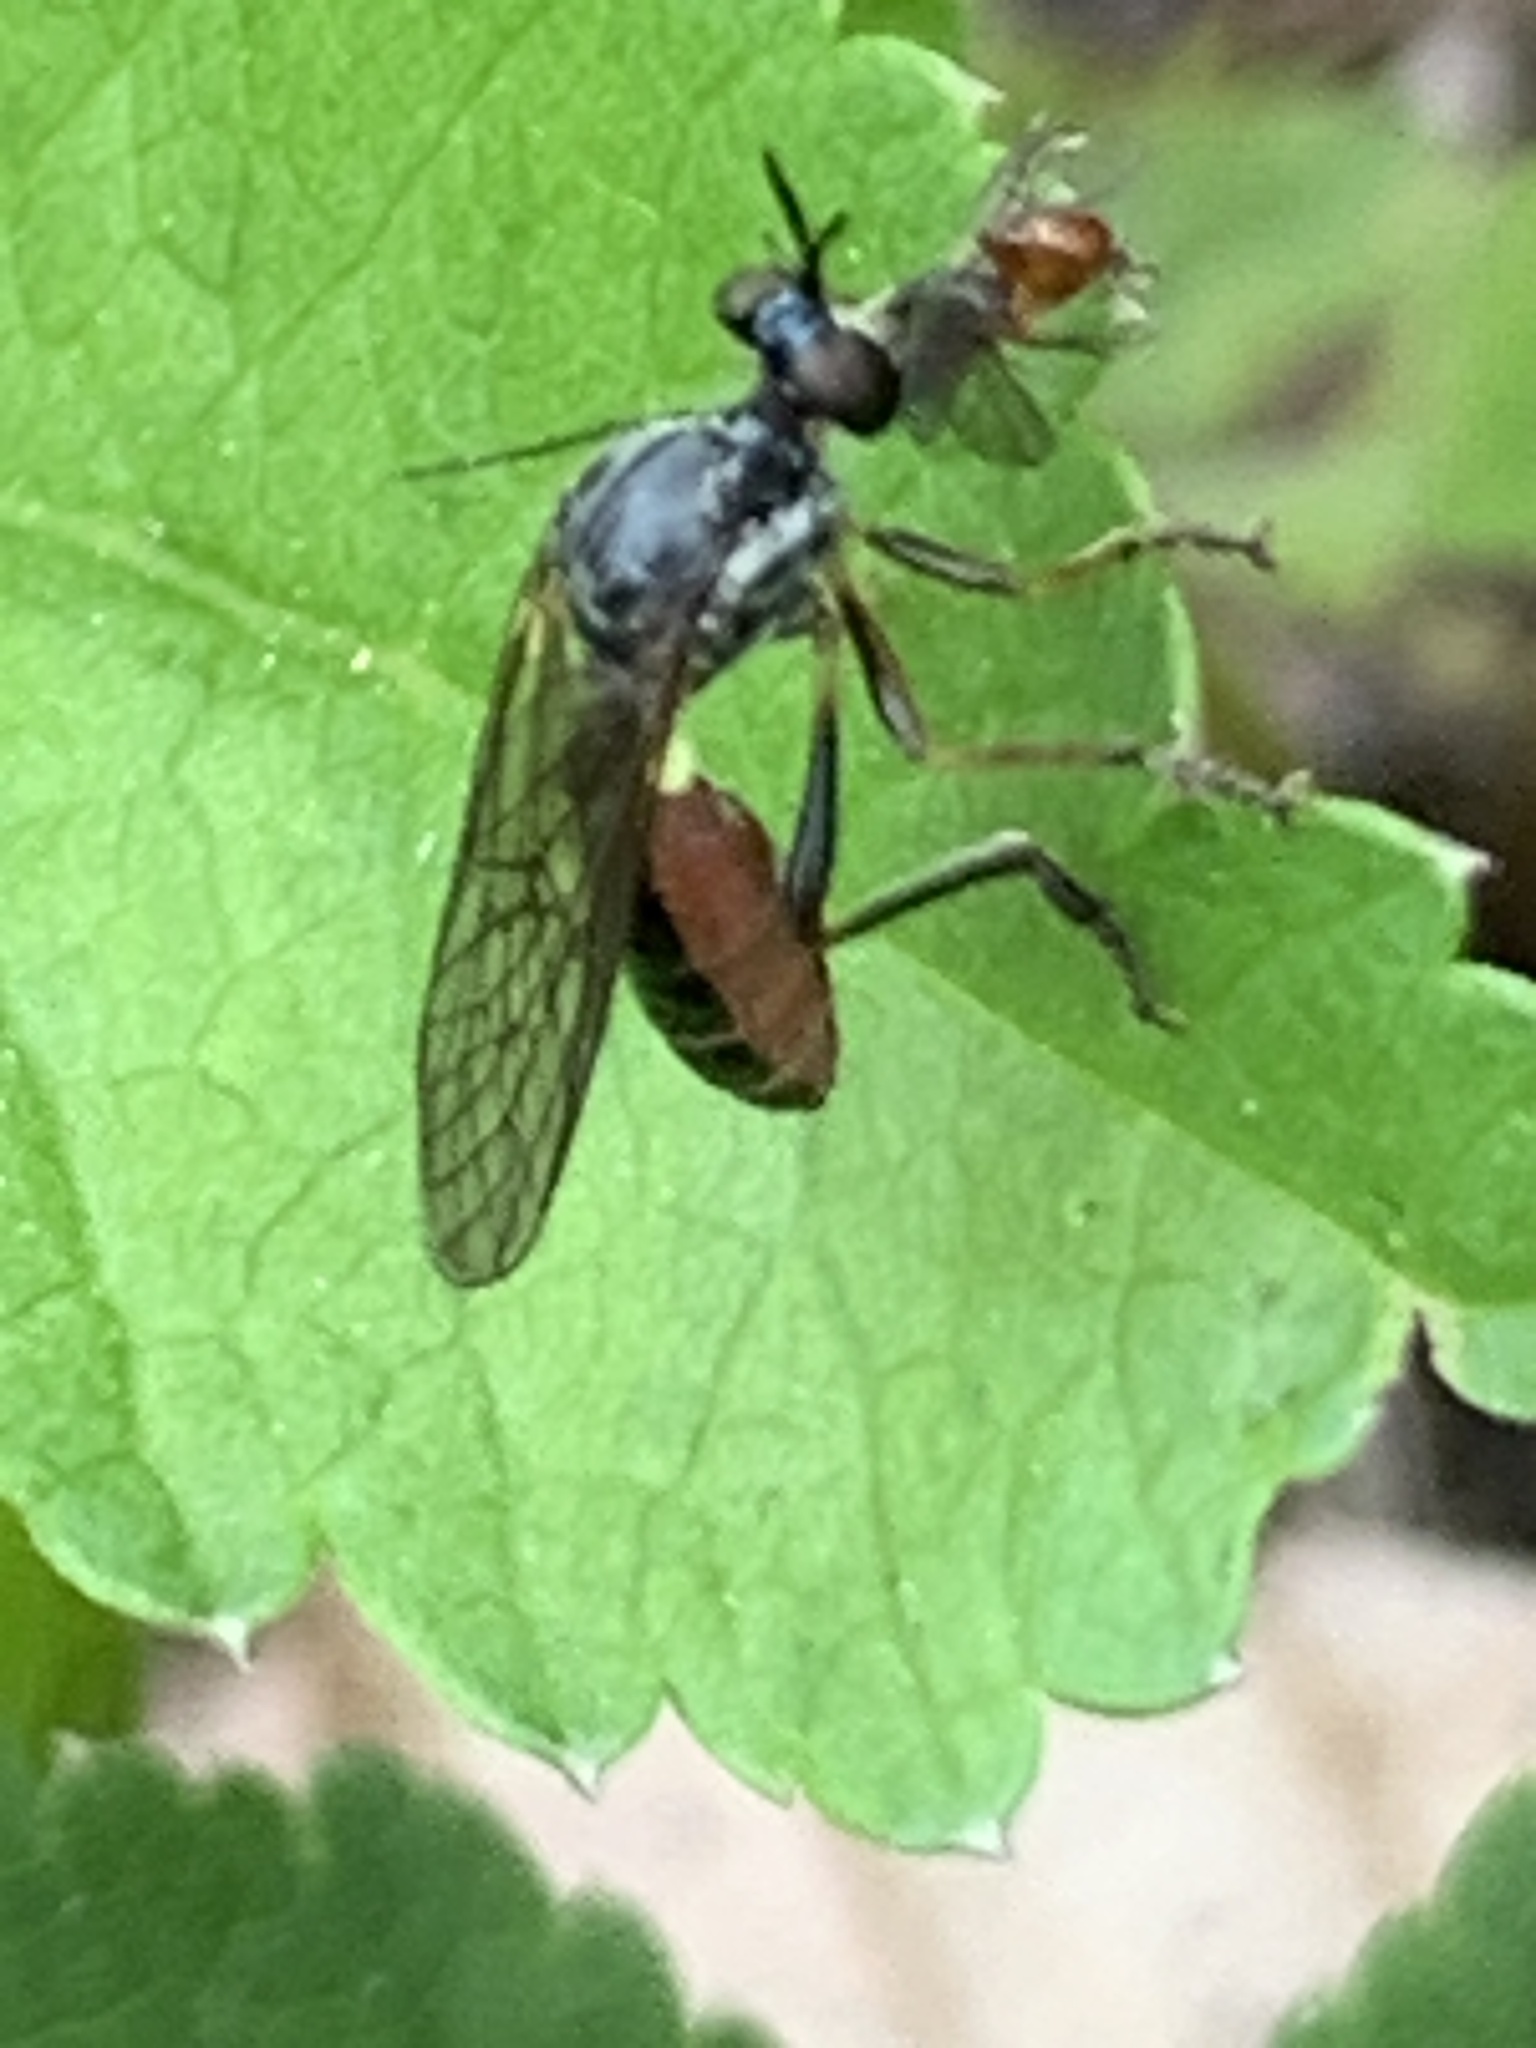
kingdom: Animalia
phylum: Arthropoda
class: Insecta
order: Diptera
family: Asilidae
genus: Dioctria
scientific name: Dioctria hyalipennis
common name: Stripe-legged robberfly
